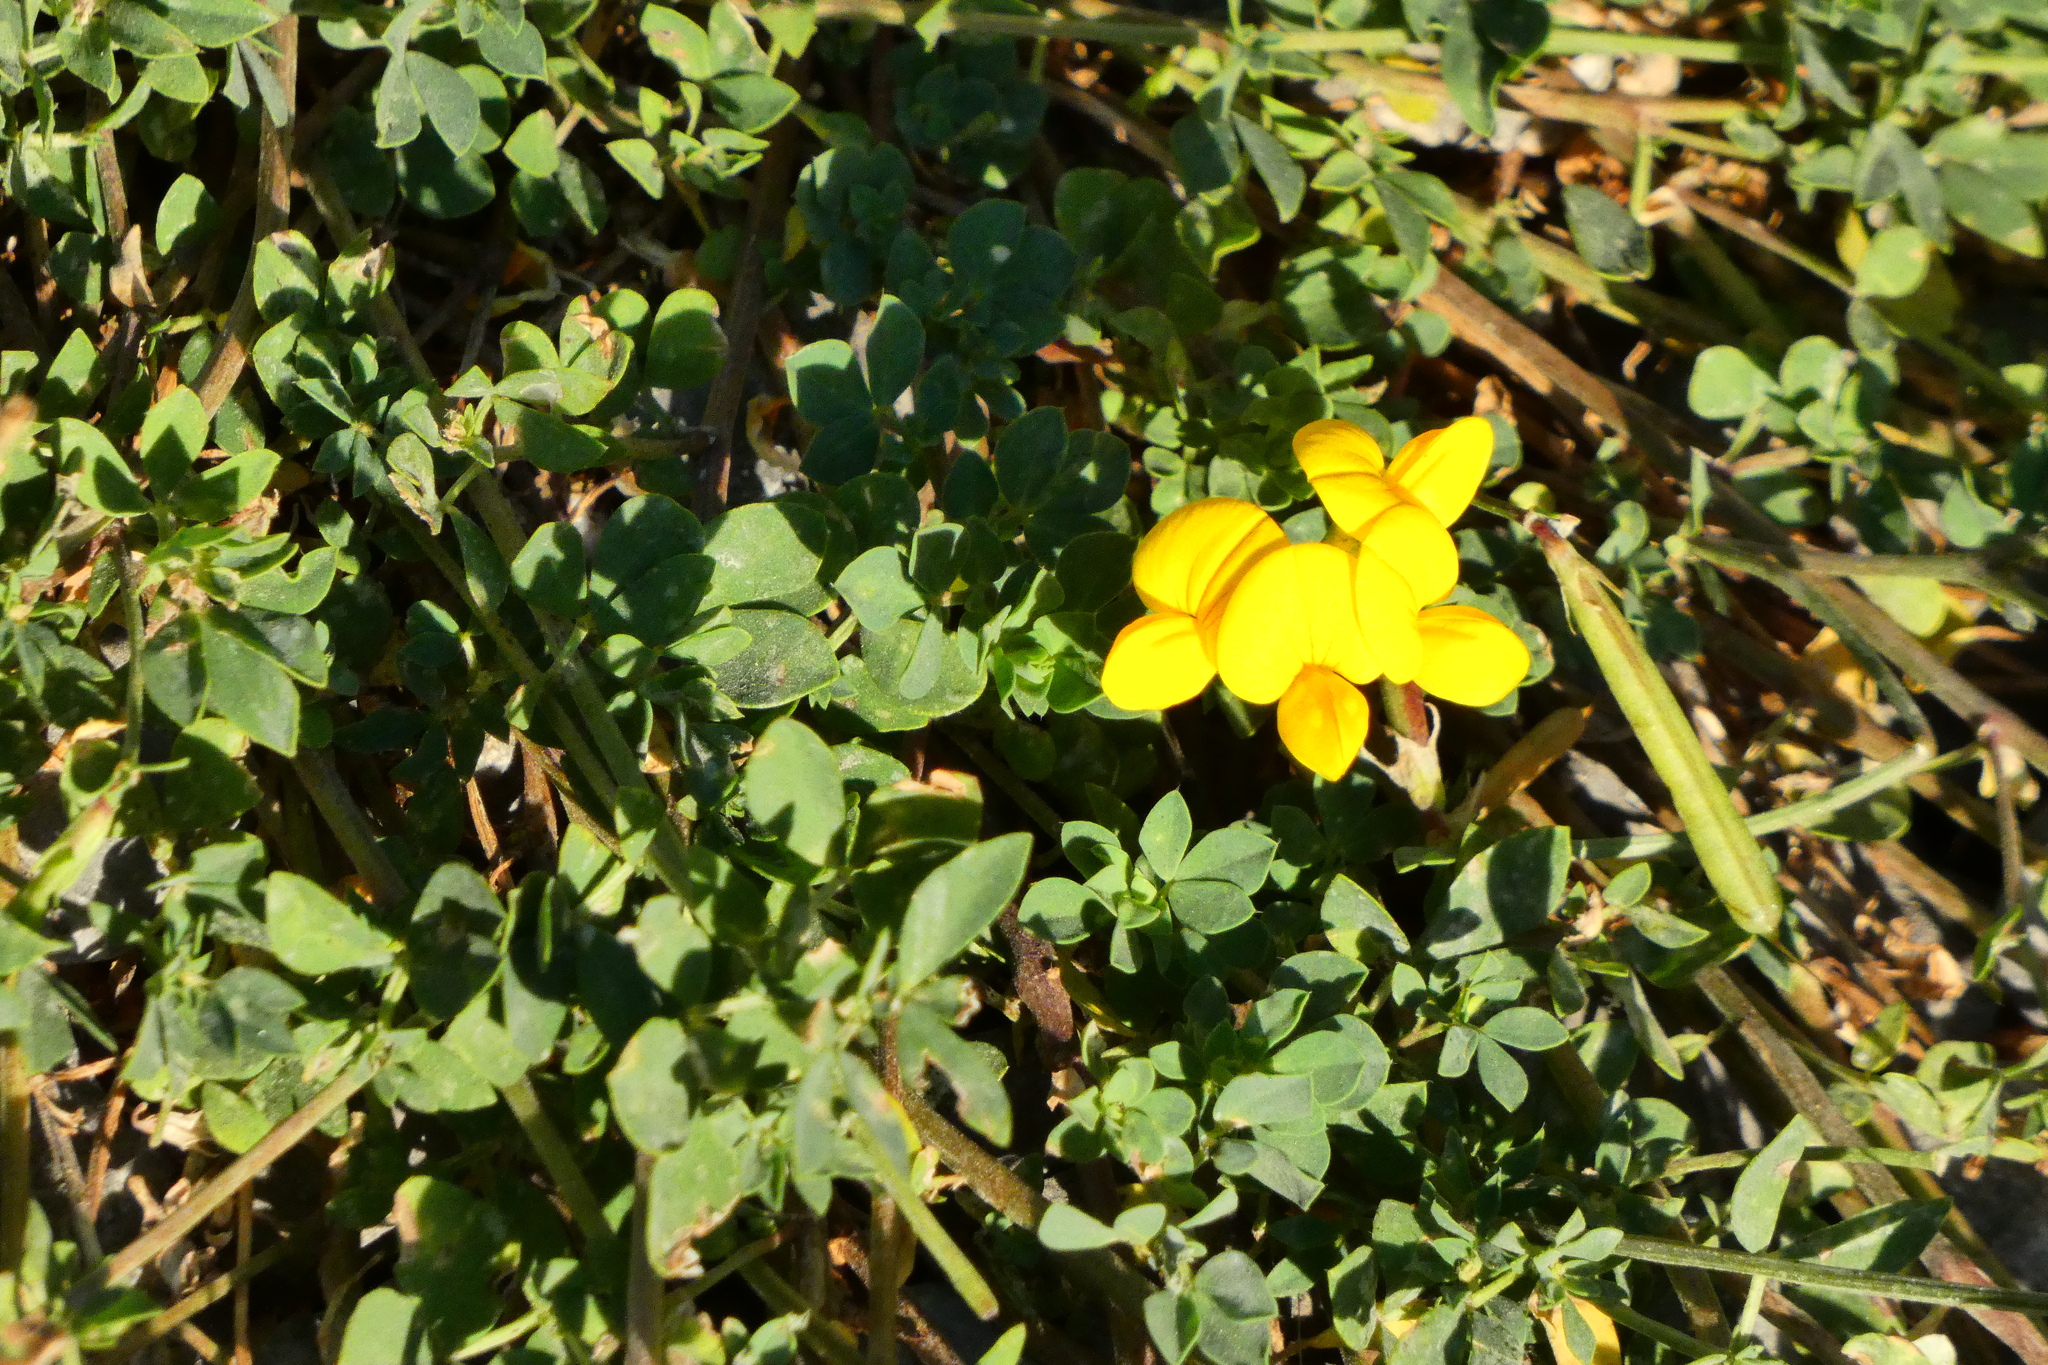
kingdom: Plantae
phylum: Tracheophyta
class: Magnoliopsida
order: Fabales
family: Fabaceae
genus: Lotus
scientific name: Lotus corniculatus
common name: Common bird's-foot-trefoil
